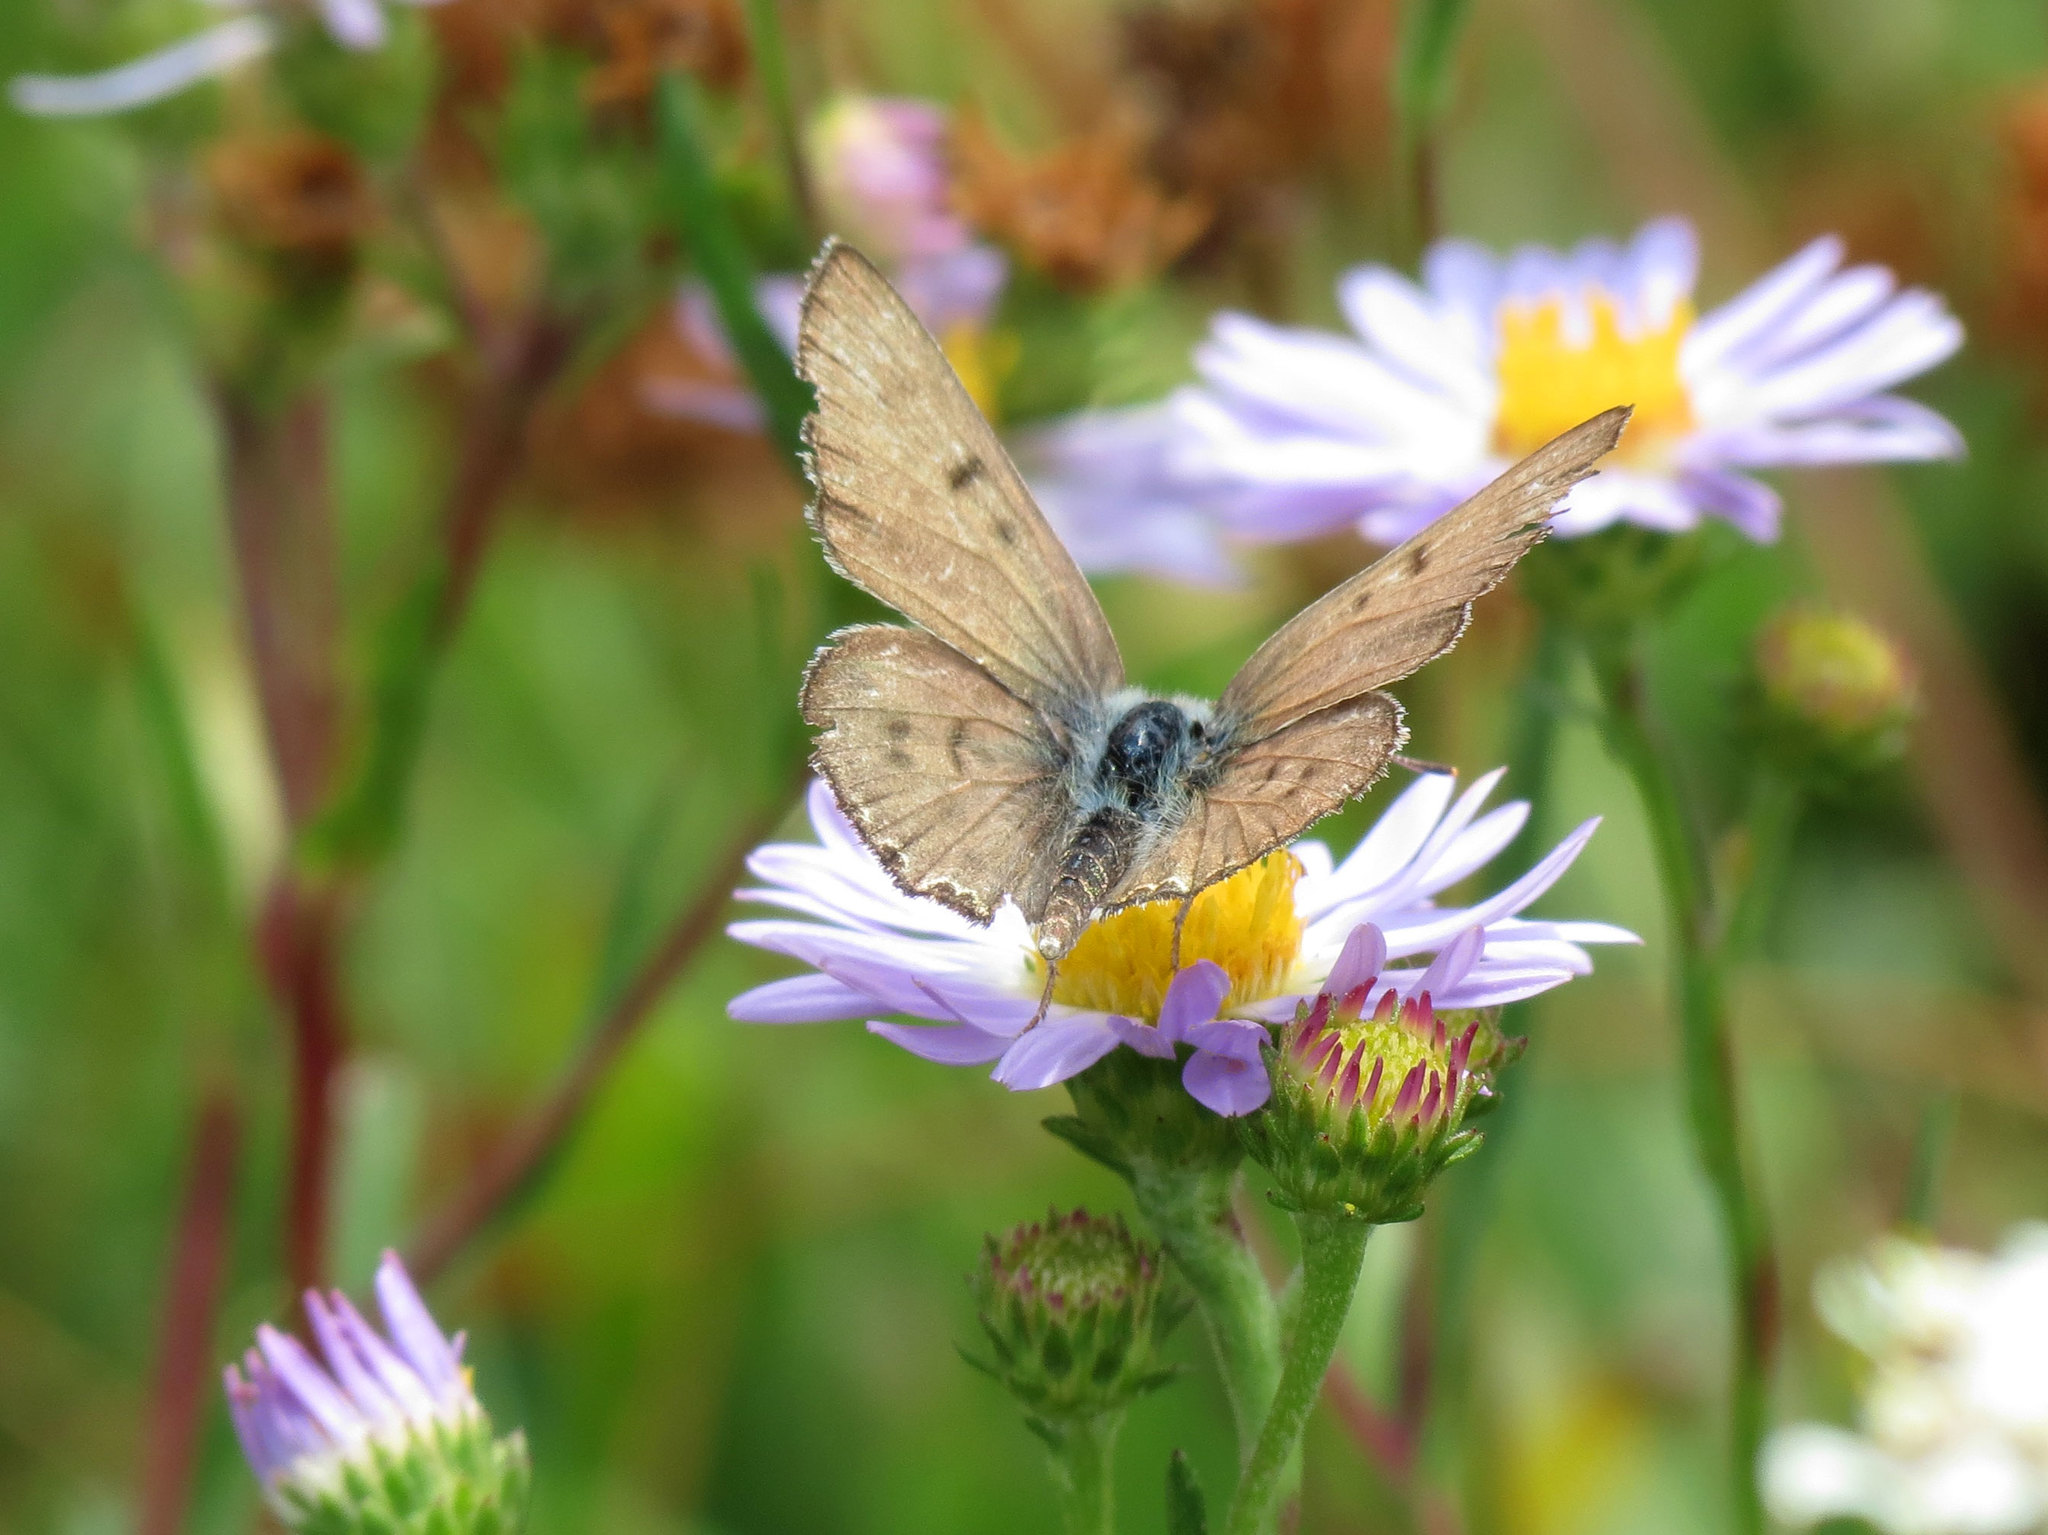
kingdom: Animalia
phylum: Arthropoda
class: Insecta
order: Lepidoptera
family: Lycaenidae
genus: Tharsalea
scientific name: Tharsalea editha
